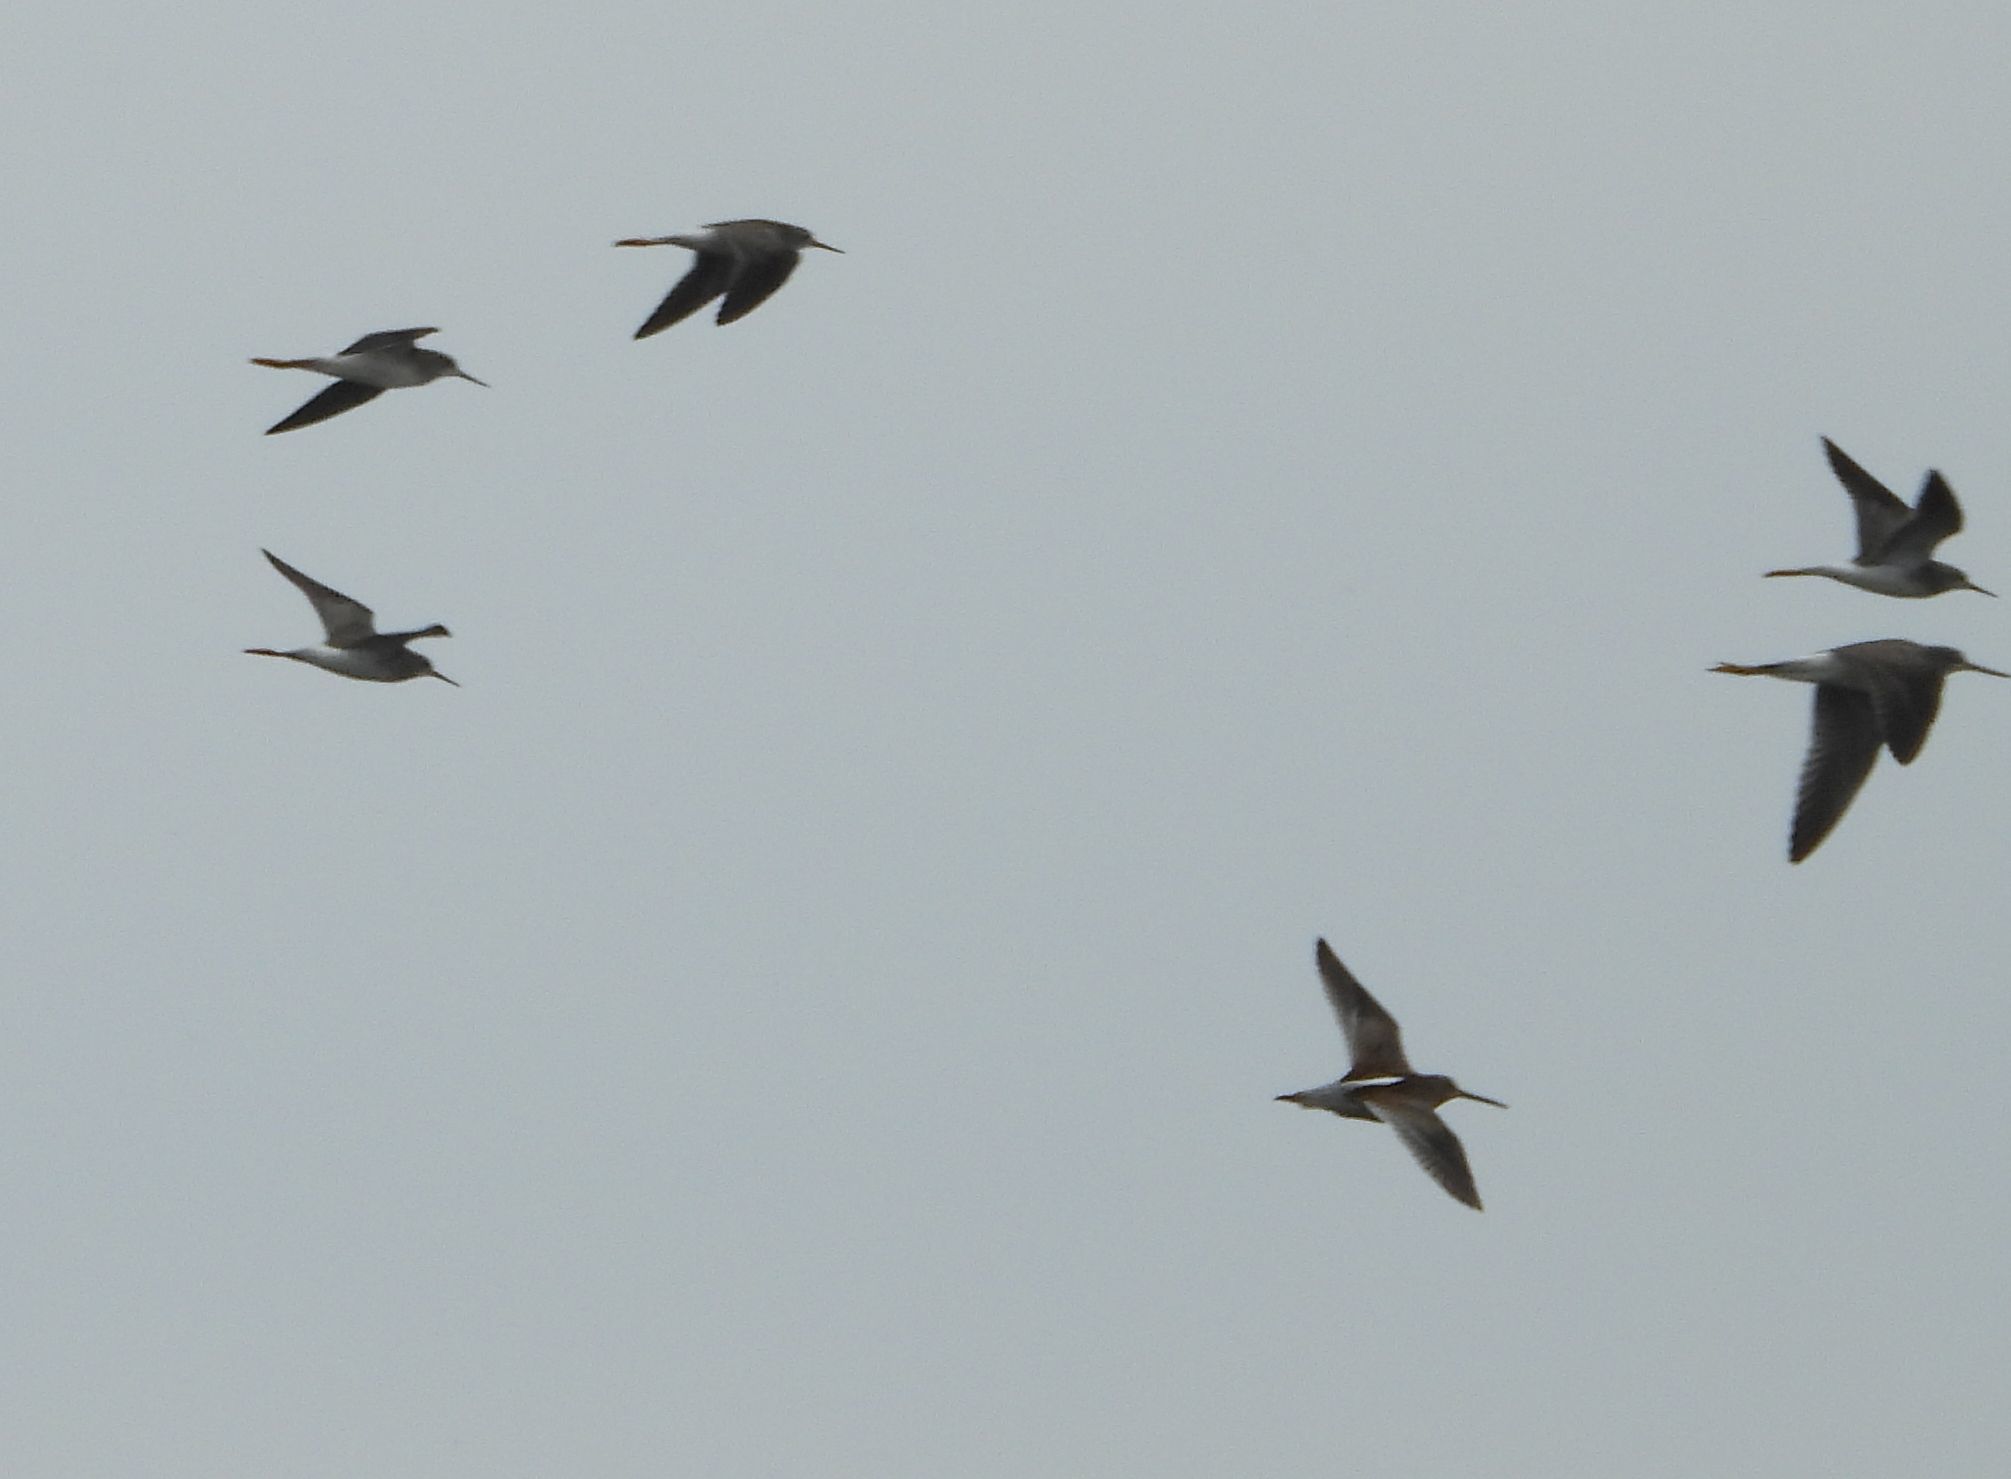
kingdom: Animalia
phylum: Chordata
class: Aves
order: Charadriiformes
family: Scolopacidae
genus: Tringa
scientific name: Tringa melanoleuca
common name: Greater yellowlegs
